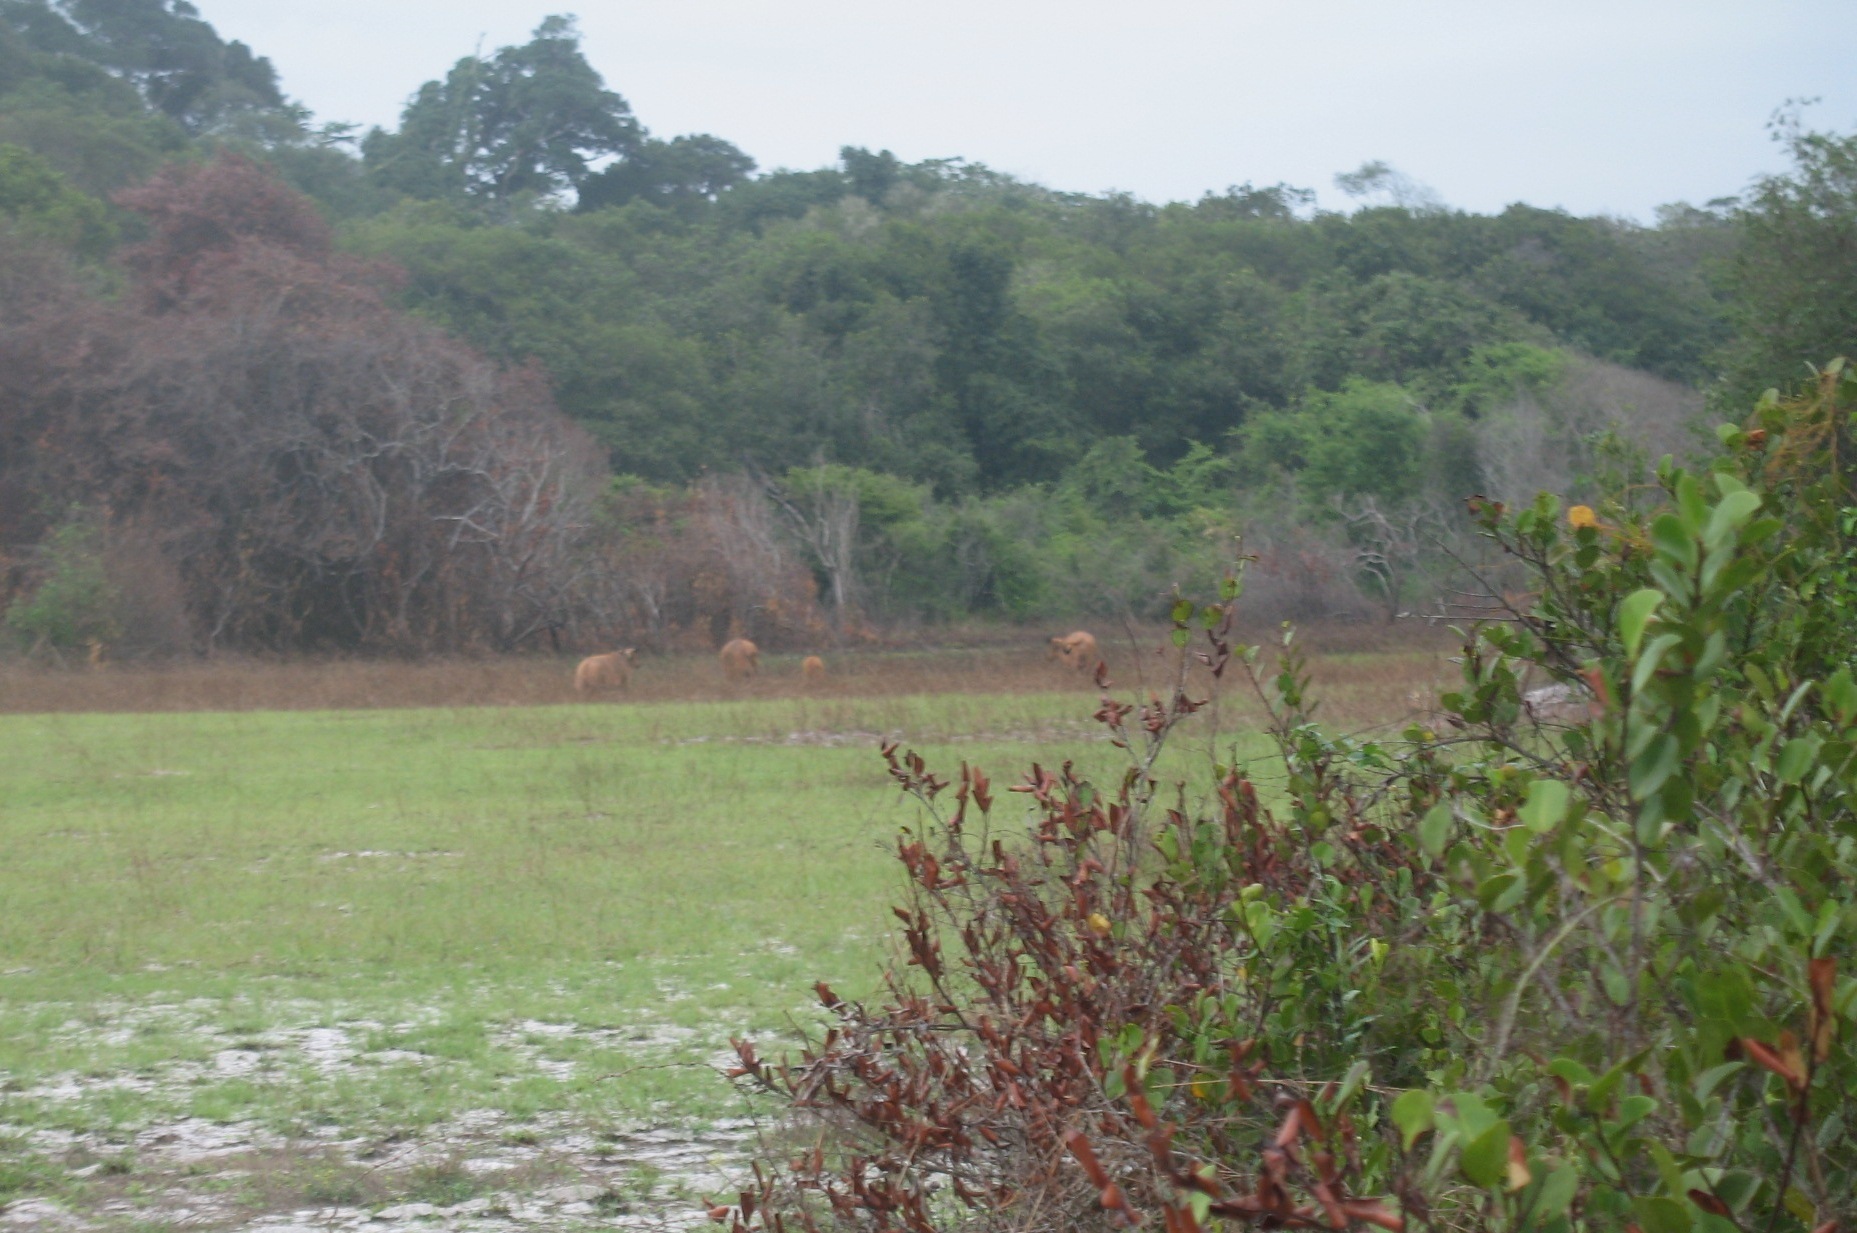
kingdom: Animalia
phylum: Chordata
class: Mammalia
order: Artiodactyla
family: Bovidae
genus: Syncerus
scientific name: Syncerus caffer
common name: African buffalo
